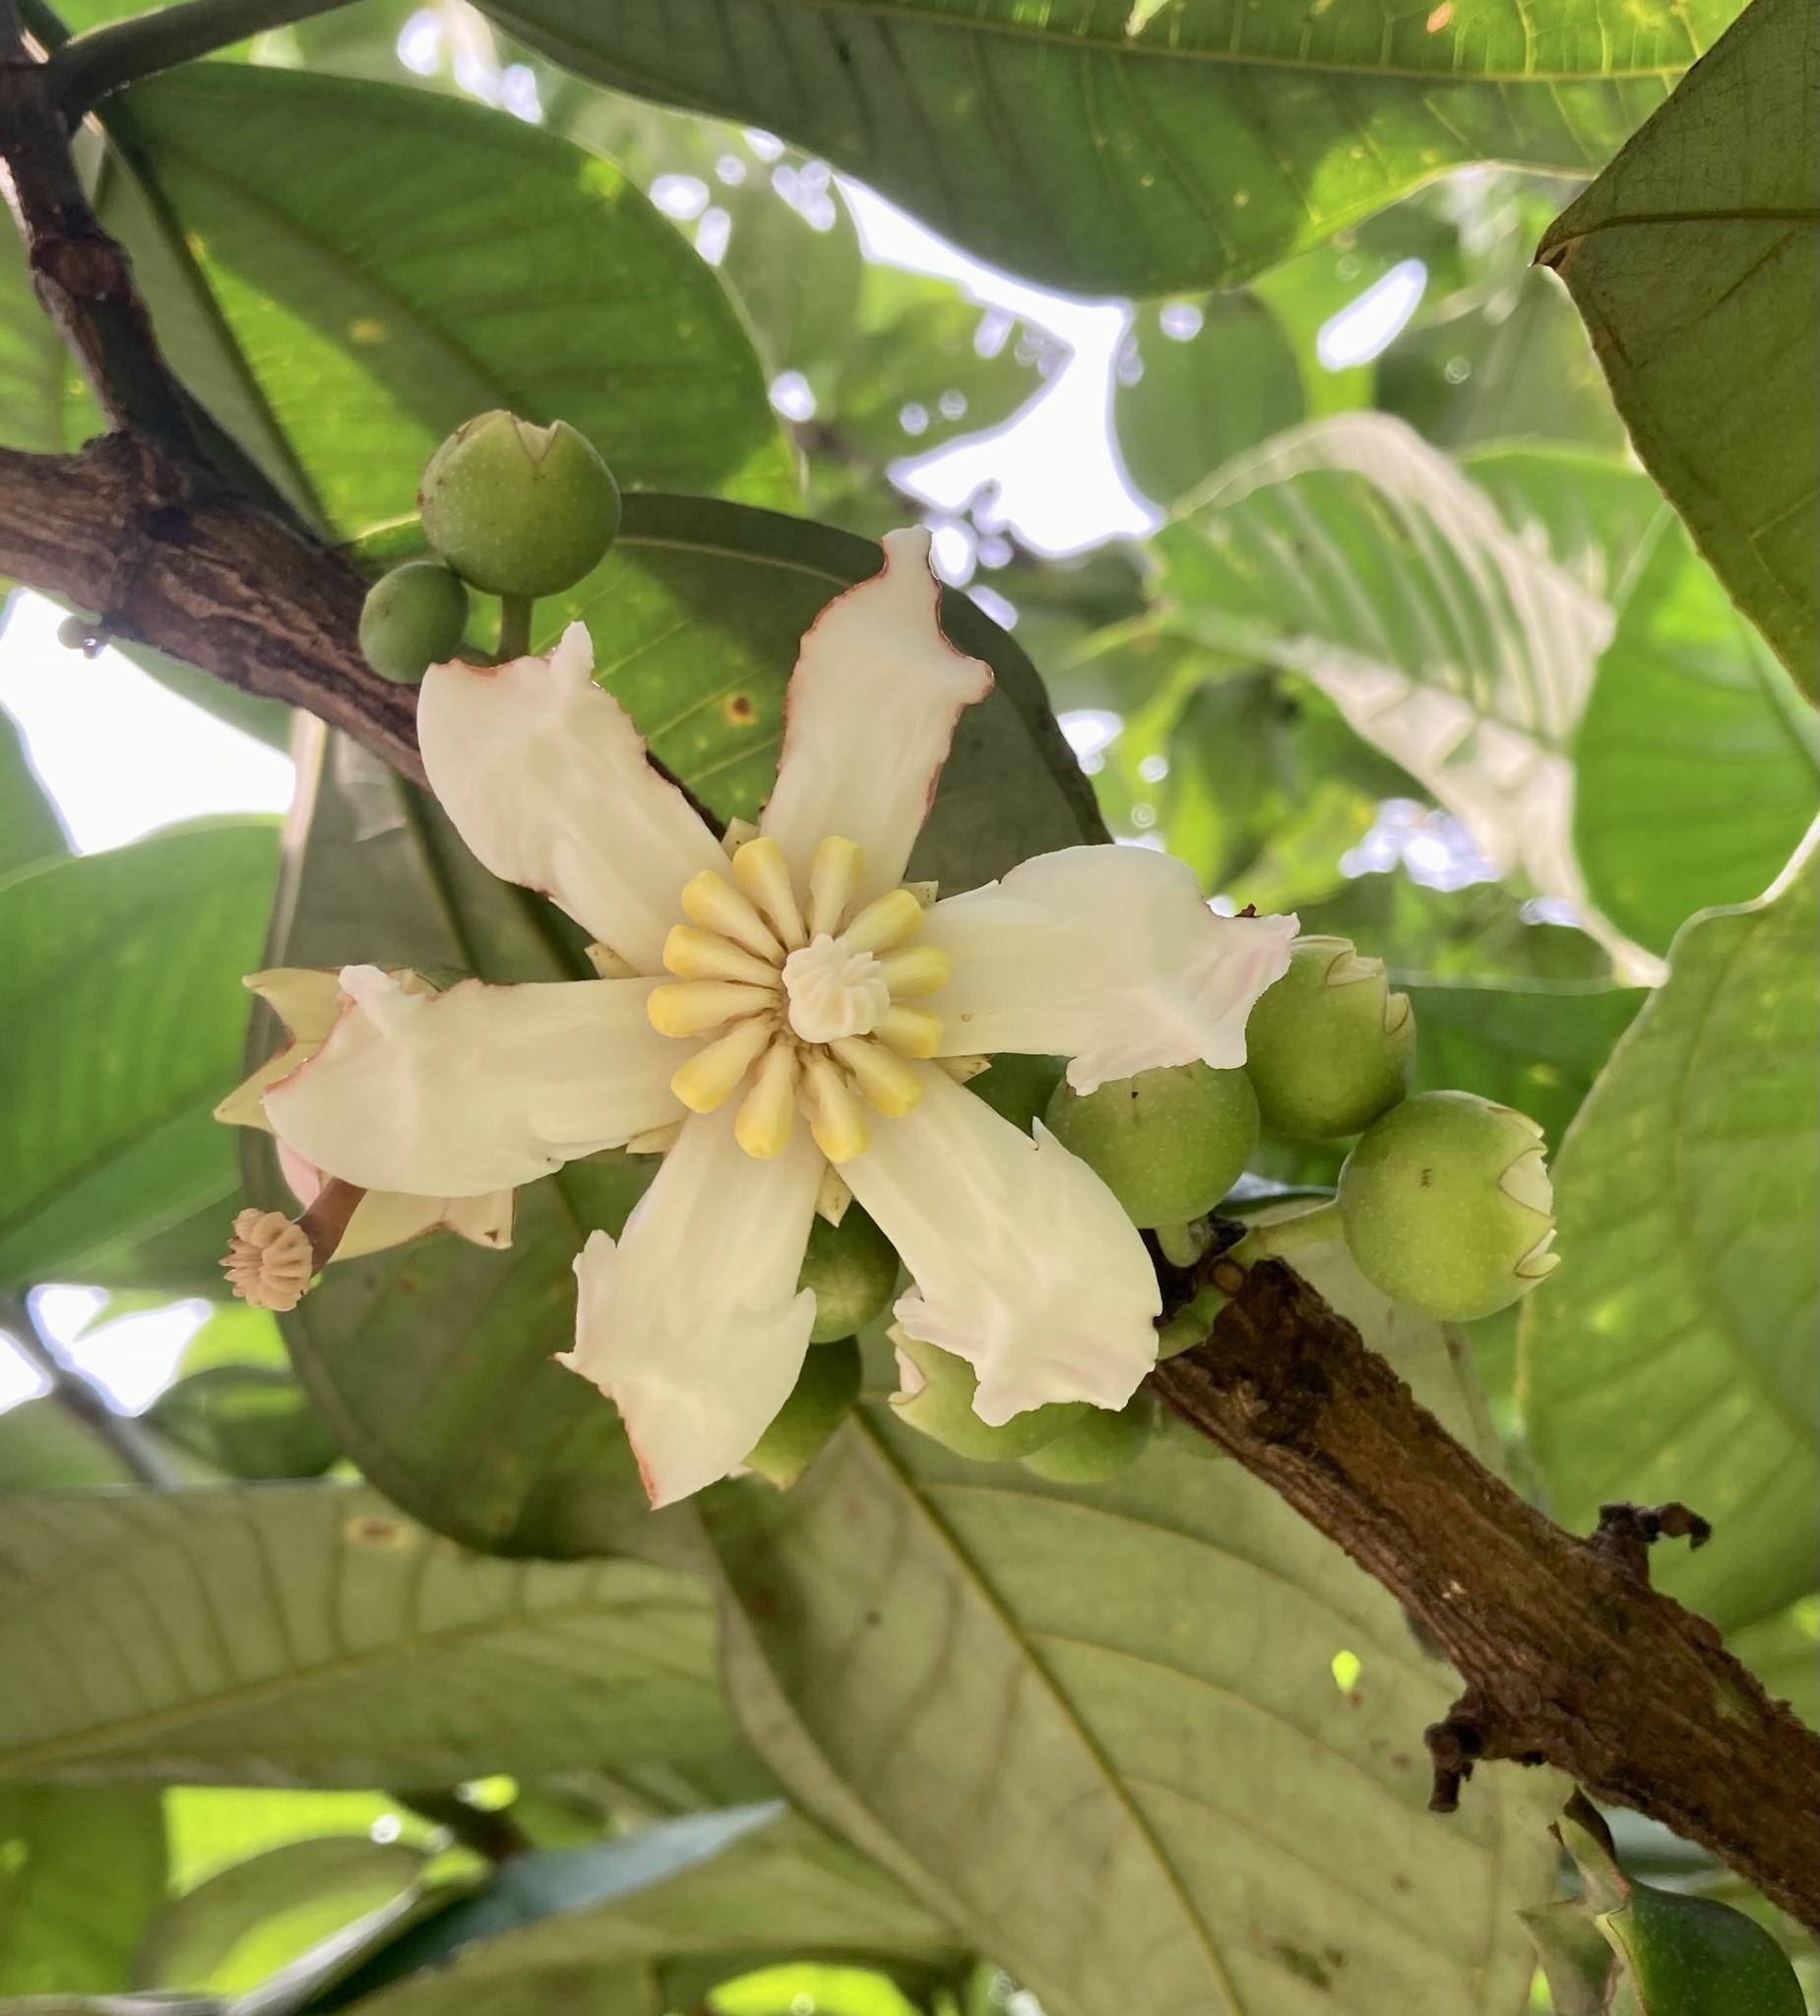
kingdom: Plantae
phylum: Tracheophyta
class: Magnoliopsida
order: Myrtales
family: Melastomataceae
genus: Bellucia
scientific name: Bellucia pentamera
